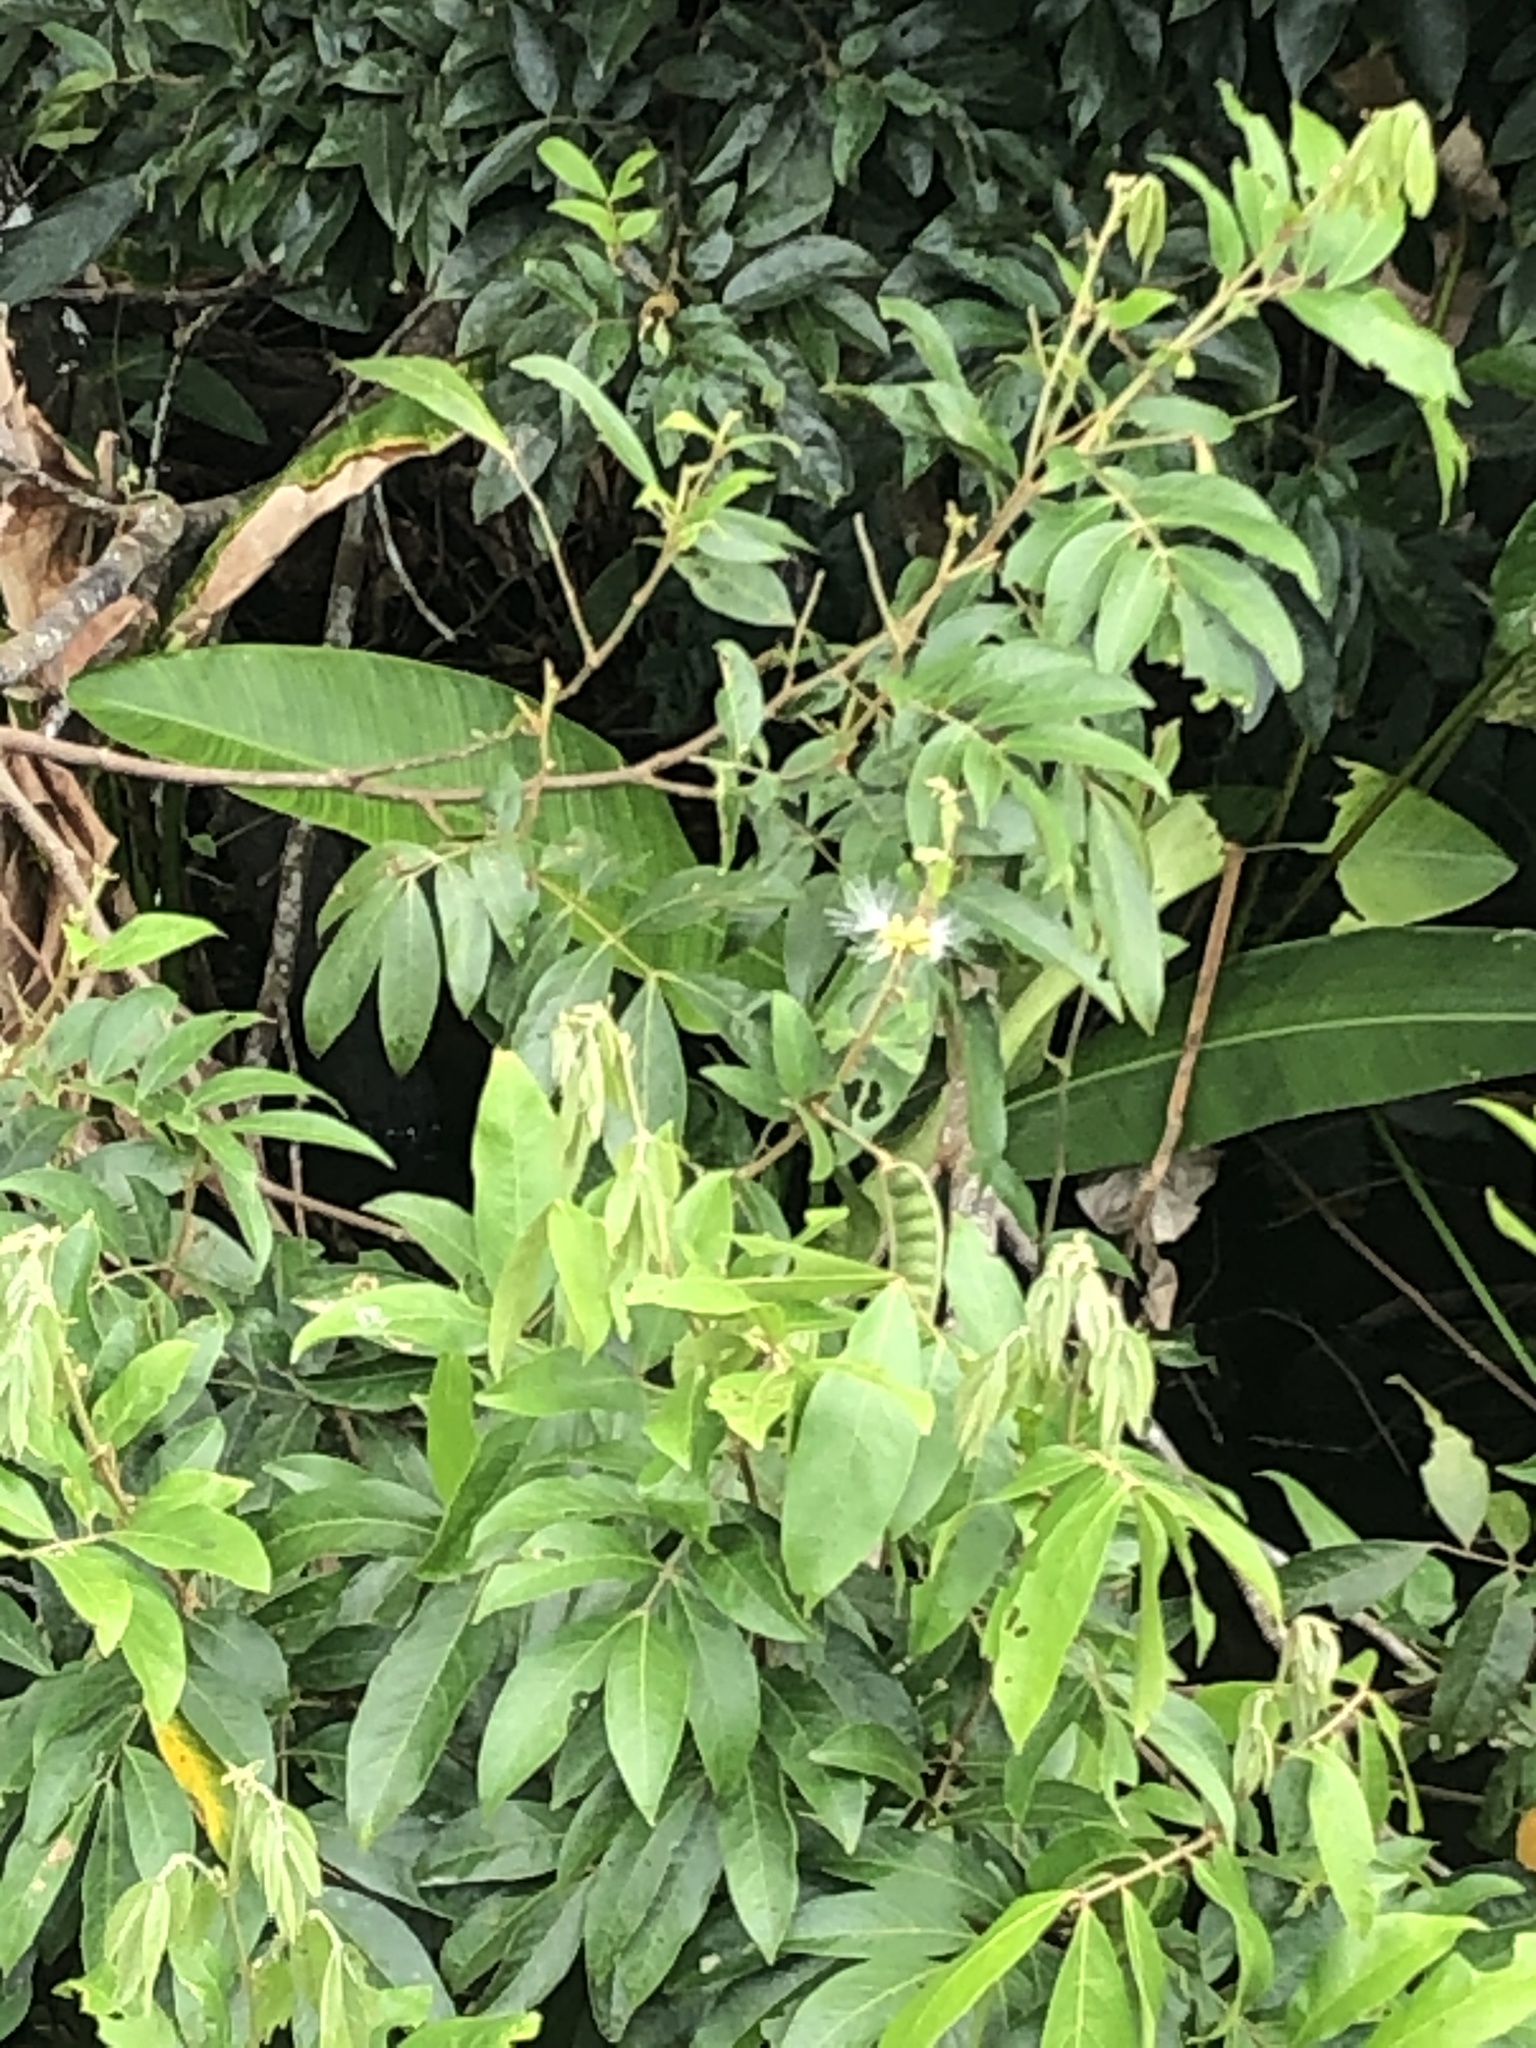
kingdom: Plantae
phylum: Tracheophyta
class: Magnoliopsida
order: Fabales
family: Fabaceae
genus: Inga
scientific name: Inga punctata
